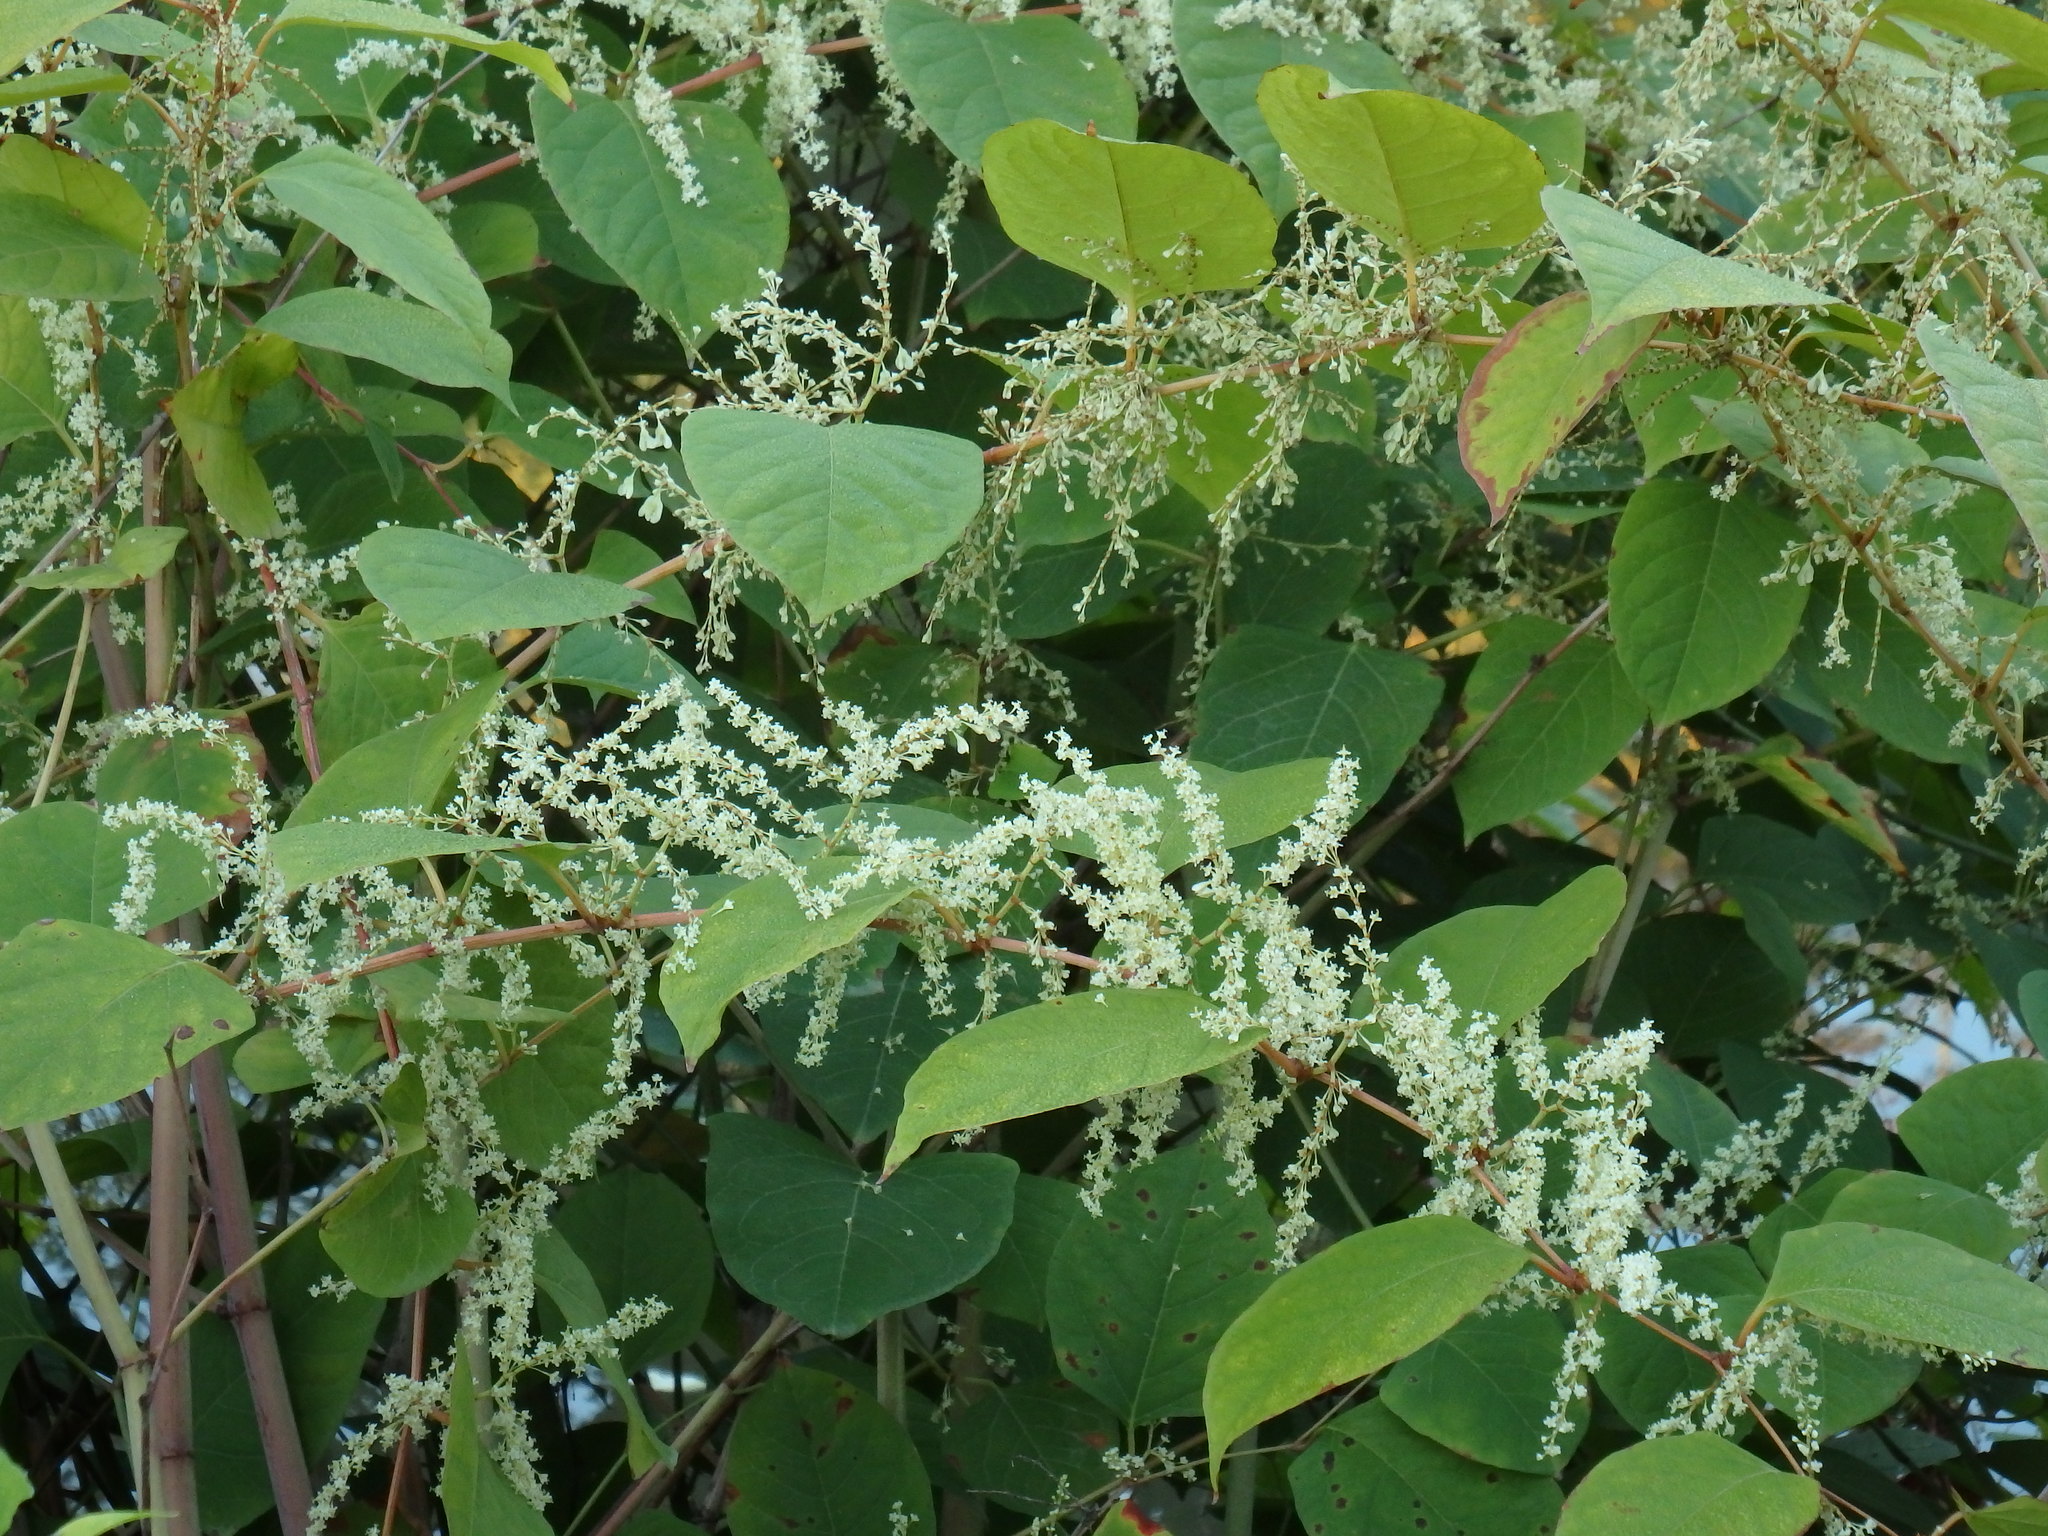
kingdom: Plantae
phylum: Tracheophyta
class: Magnoliopsida
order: Caryophyllales
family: Polygonaceae
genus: Reynoutria
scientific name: Reynoutria japonica
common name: Japanese knotweed
